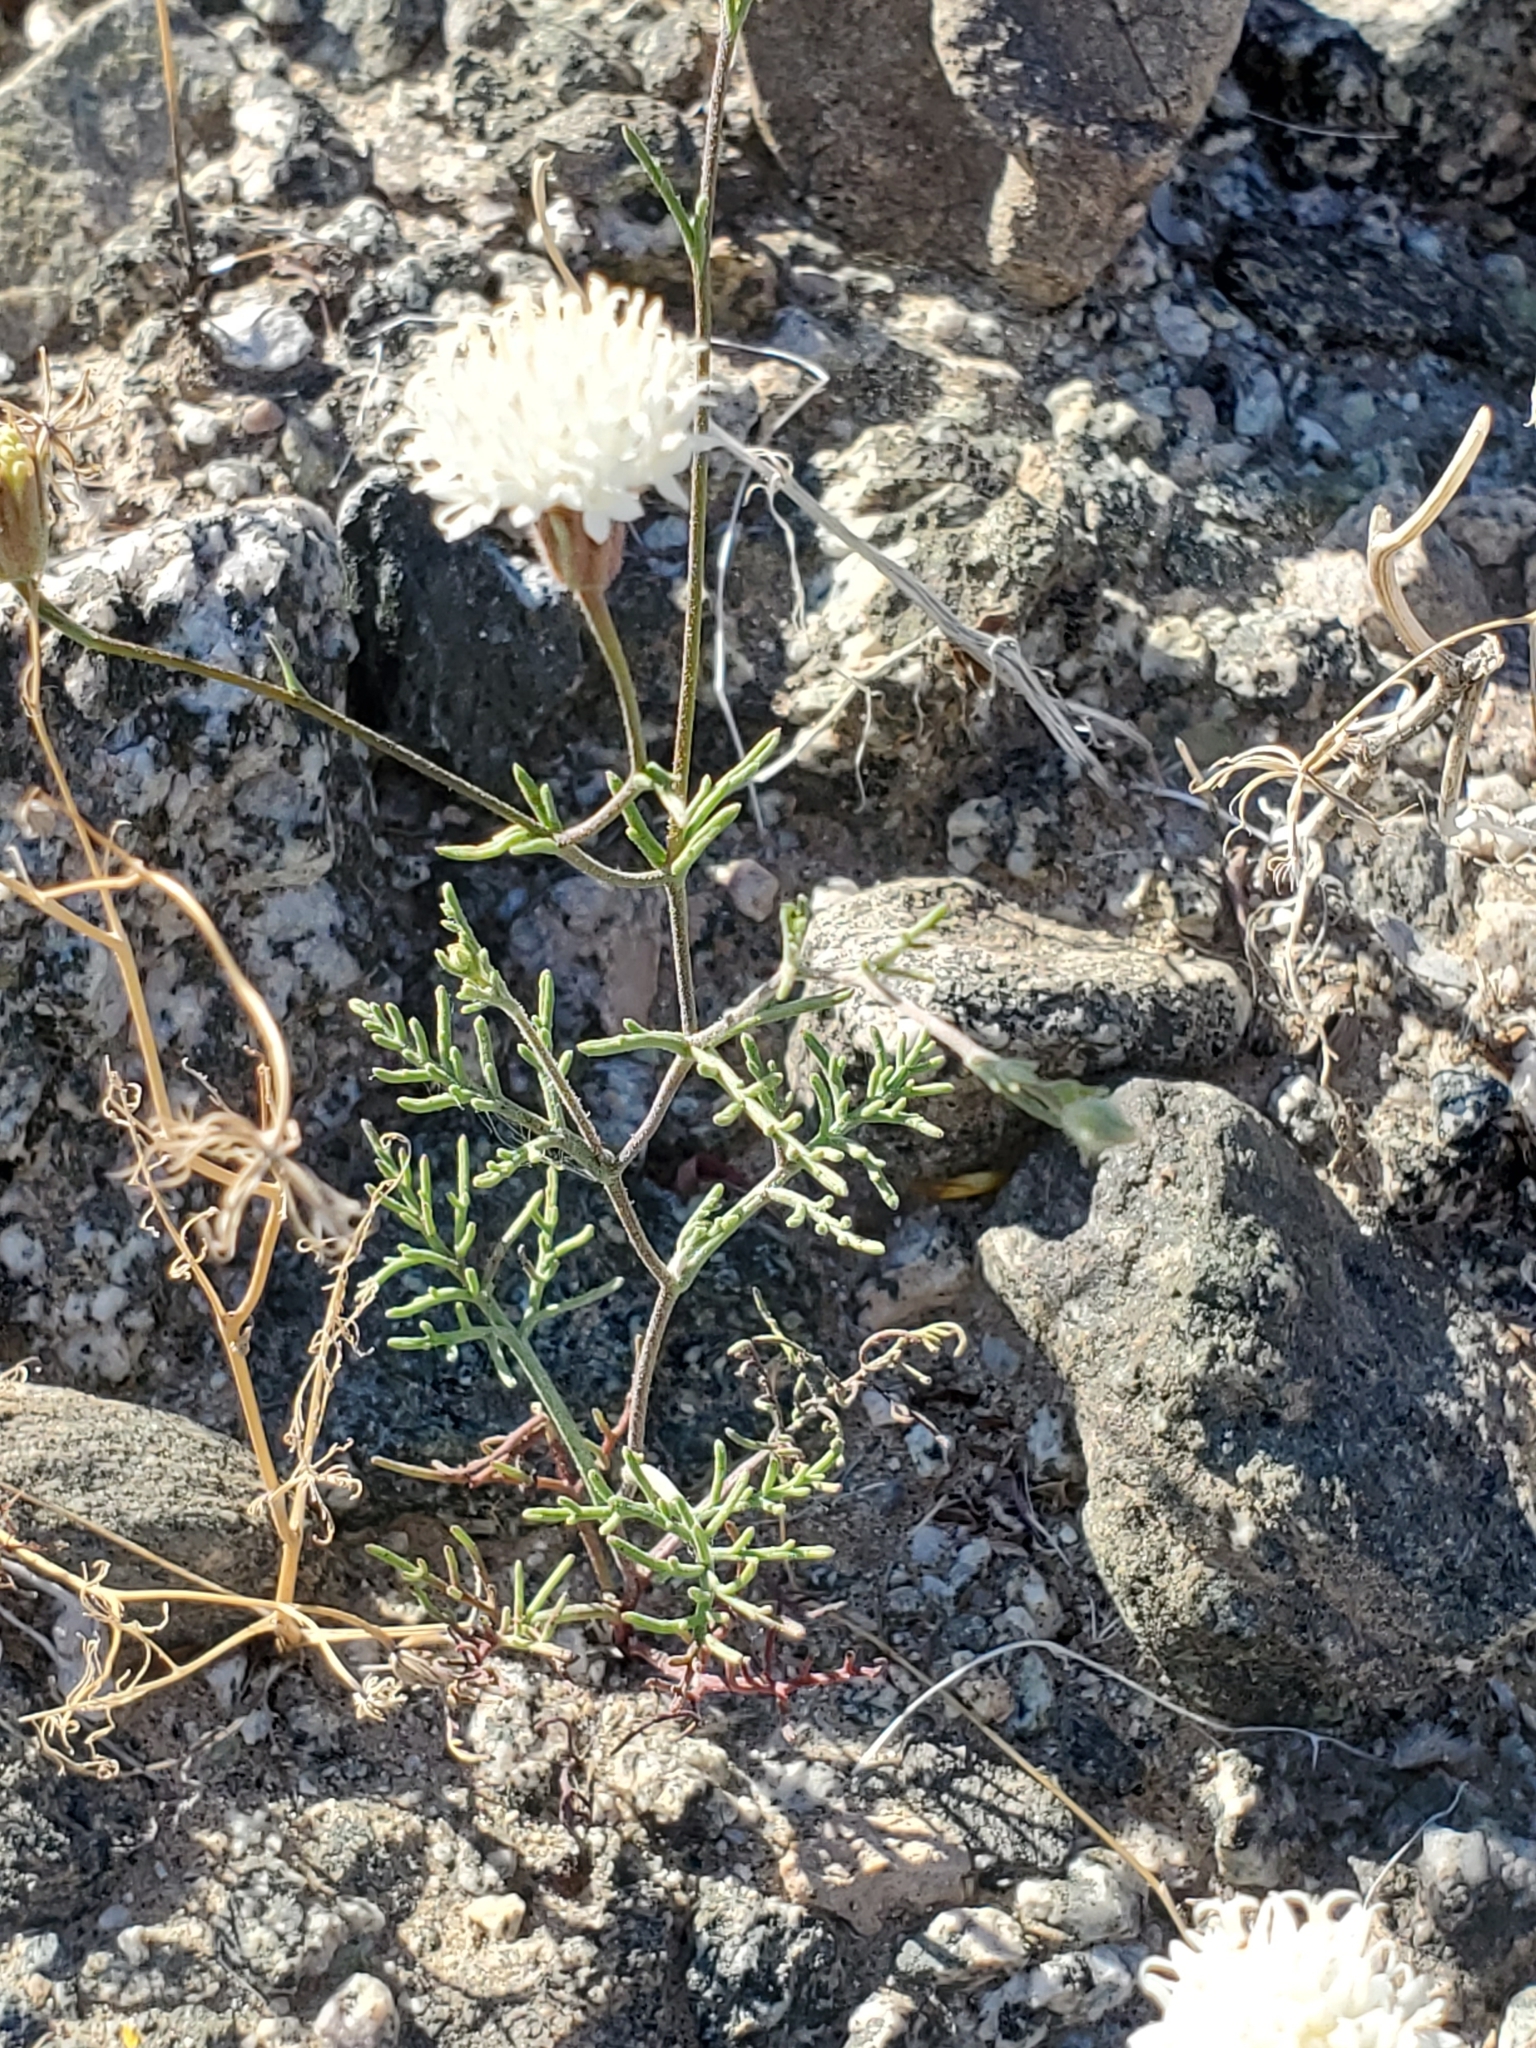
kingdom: Plantae
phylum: Tracheophyta
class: Magnoliopsida
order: Asterales
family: Asteraceae
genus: Chaenactis
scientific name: Chaenactis carphoclinia
